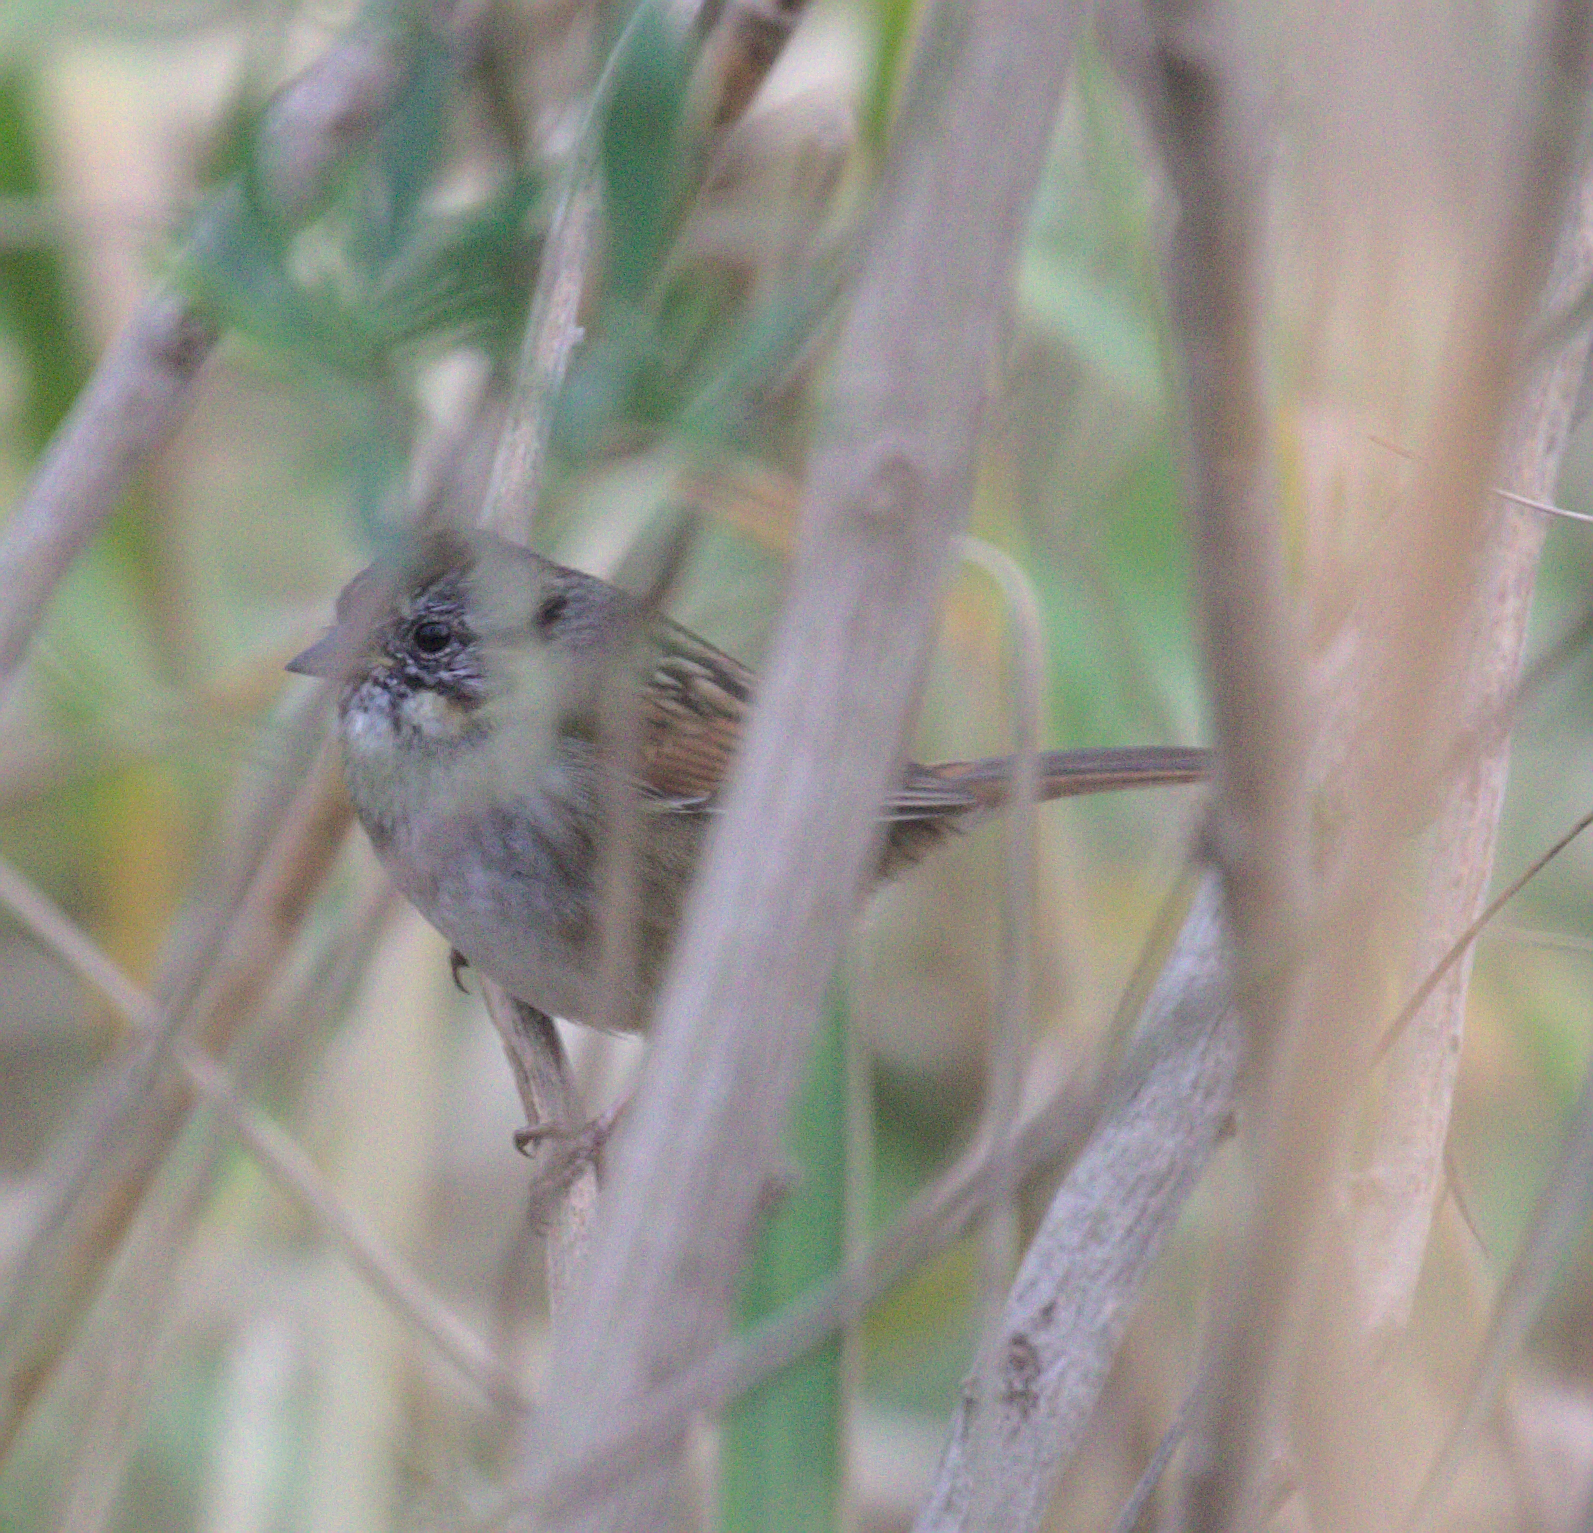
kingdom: Animalia
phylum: Chordata
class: Aves
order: Passeriformes
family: Passerellidae
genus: Melospiza
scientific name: Melospiza georgiana
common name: Swamp sparrow
